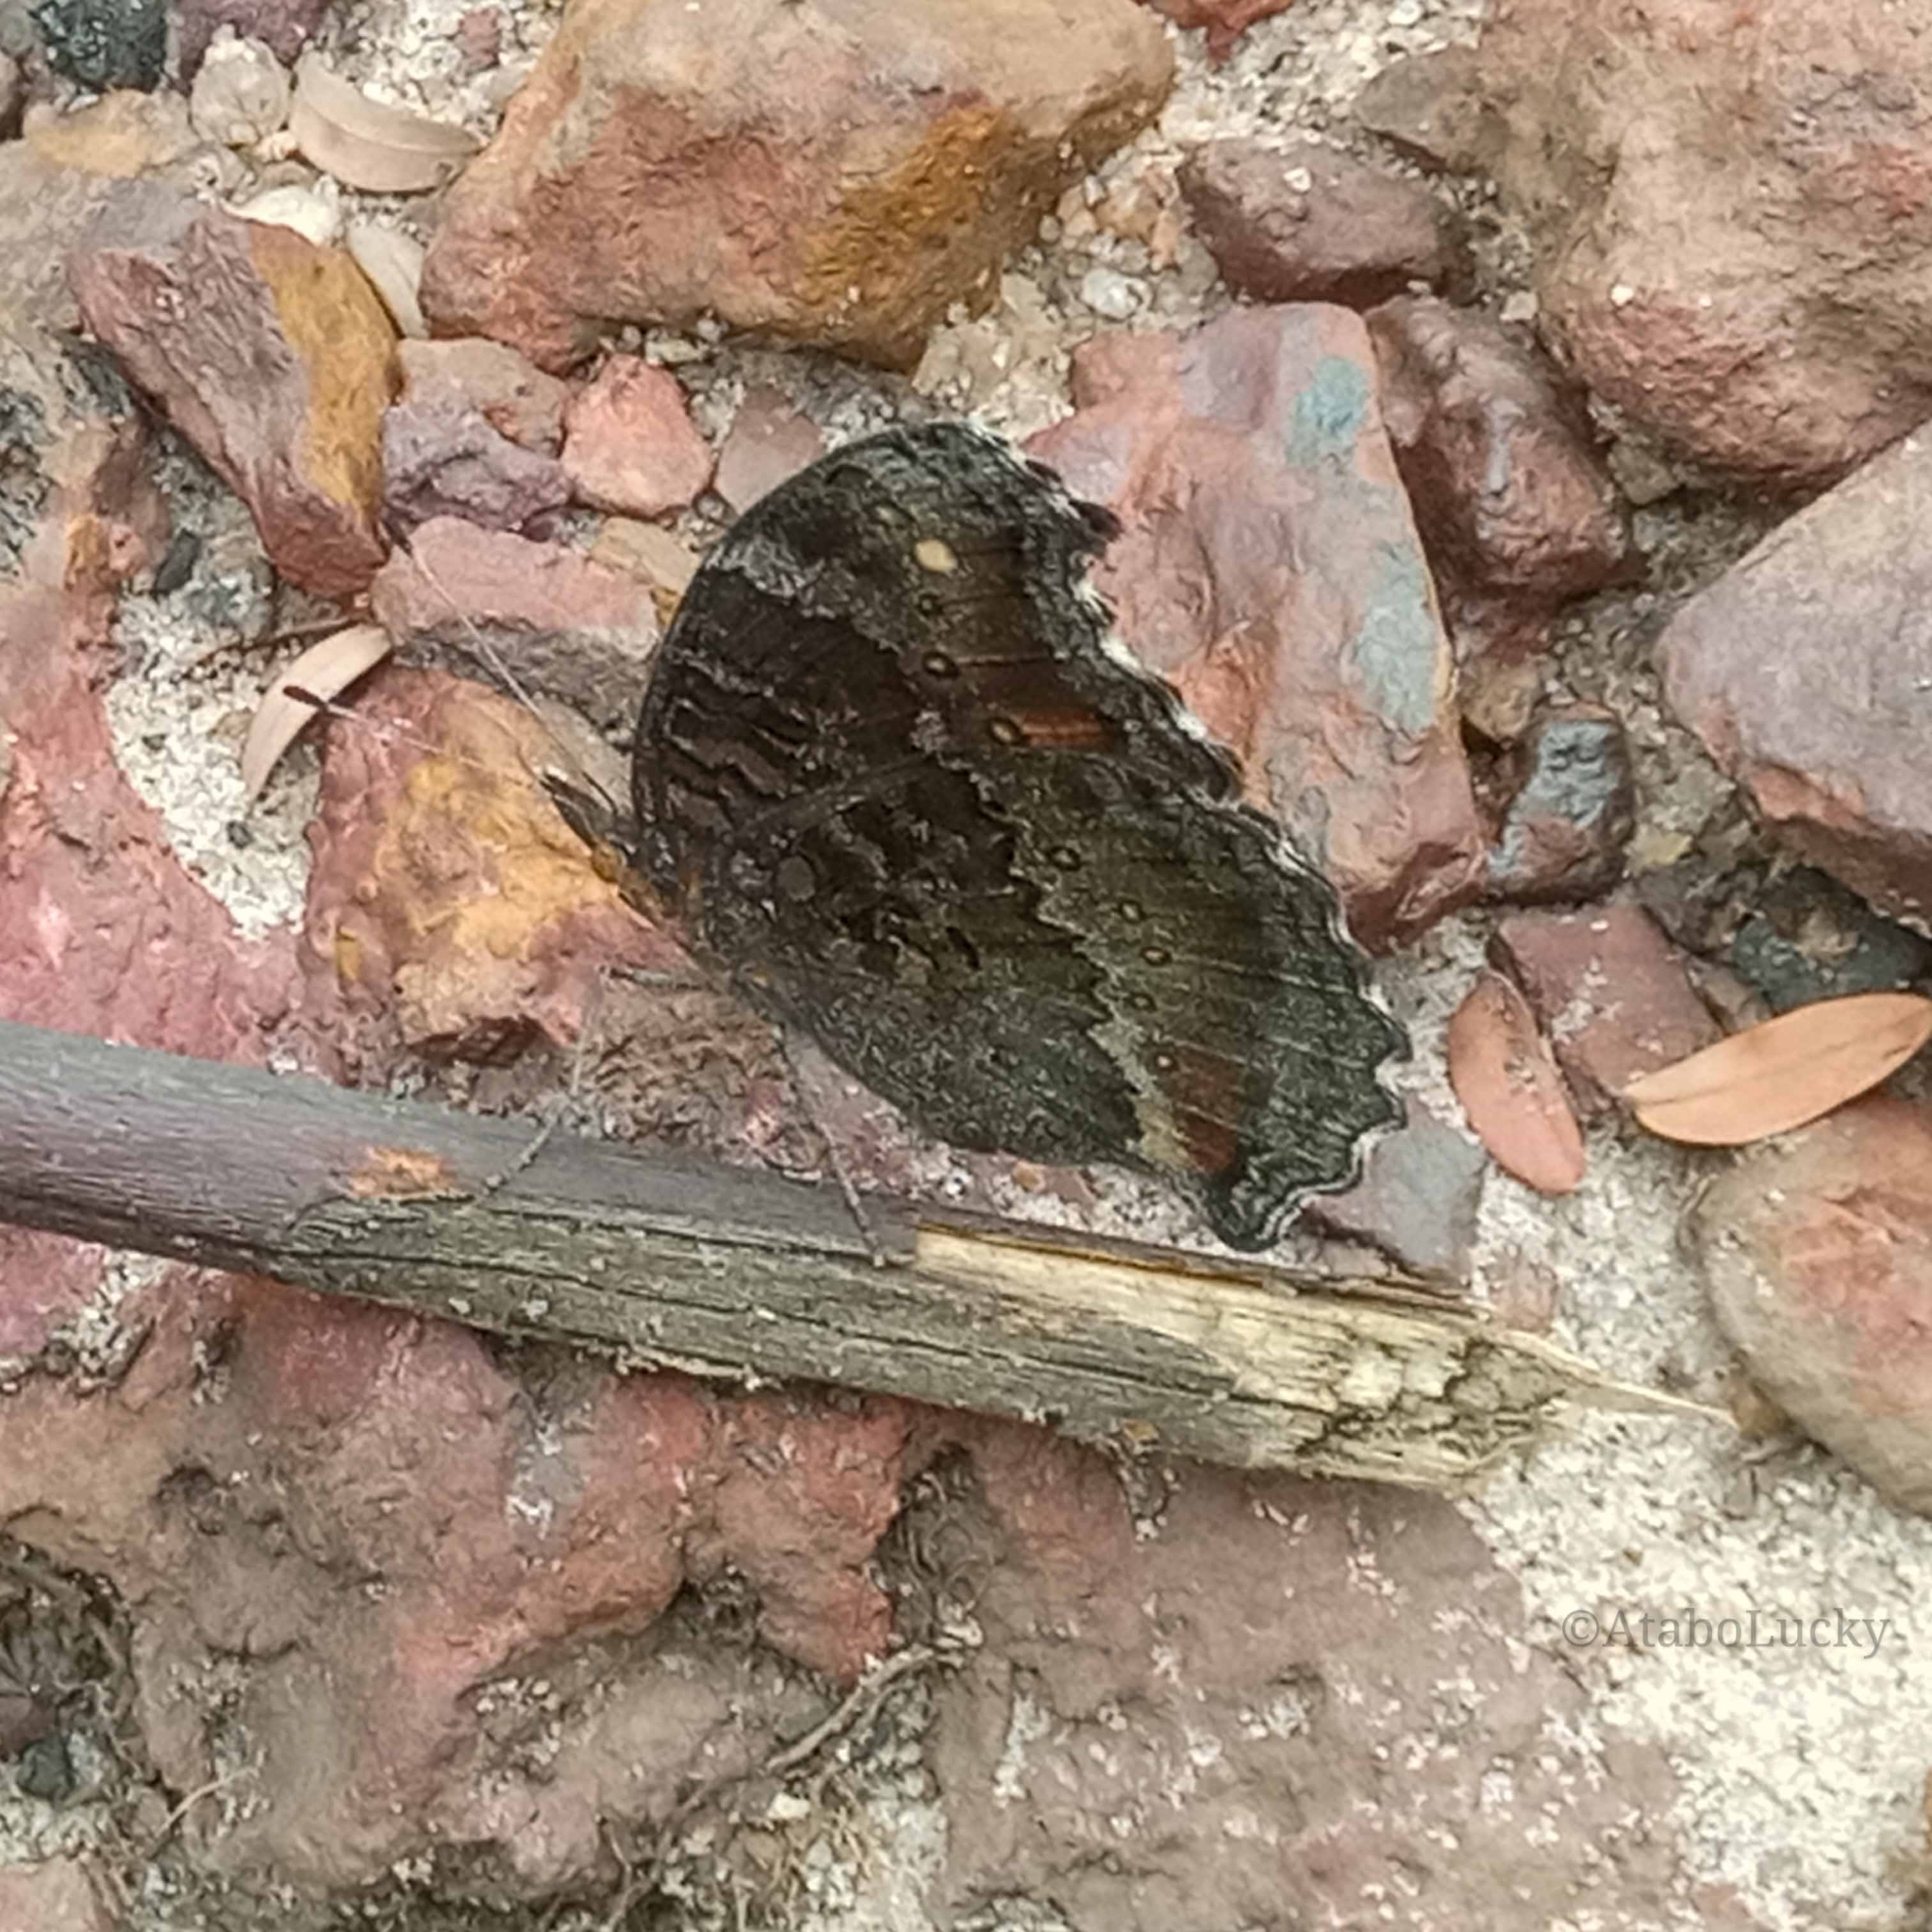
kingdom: Animalia
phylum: Arthropoda
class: Insecta
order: Lepidoptera
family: Nymphalidae
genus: Precis
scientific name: Precis octavia
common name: Gaudy commodore
